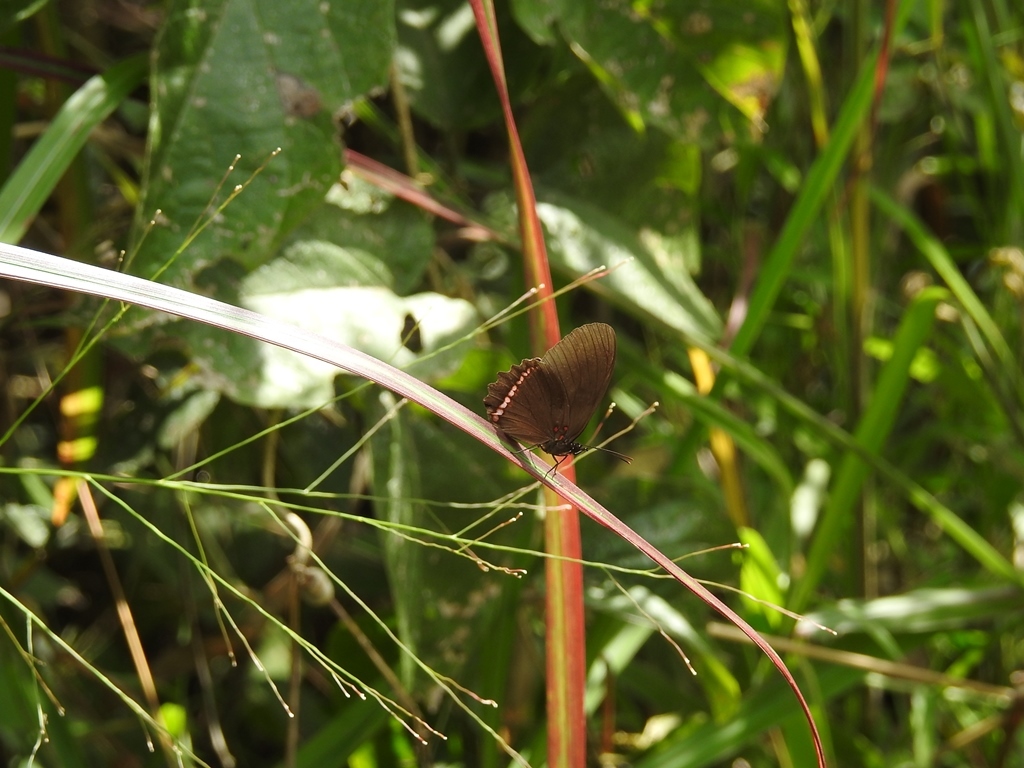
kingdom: Animalia
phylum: Arthropoda
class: Insecta
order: Lepidoptera
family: Nymphalidae
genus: Biblis
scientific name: Biblis aganisa
